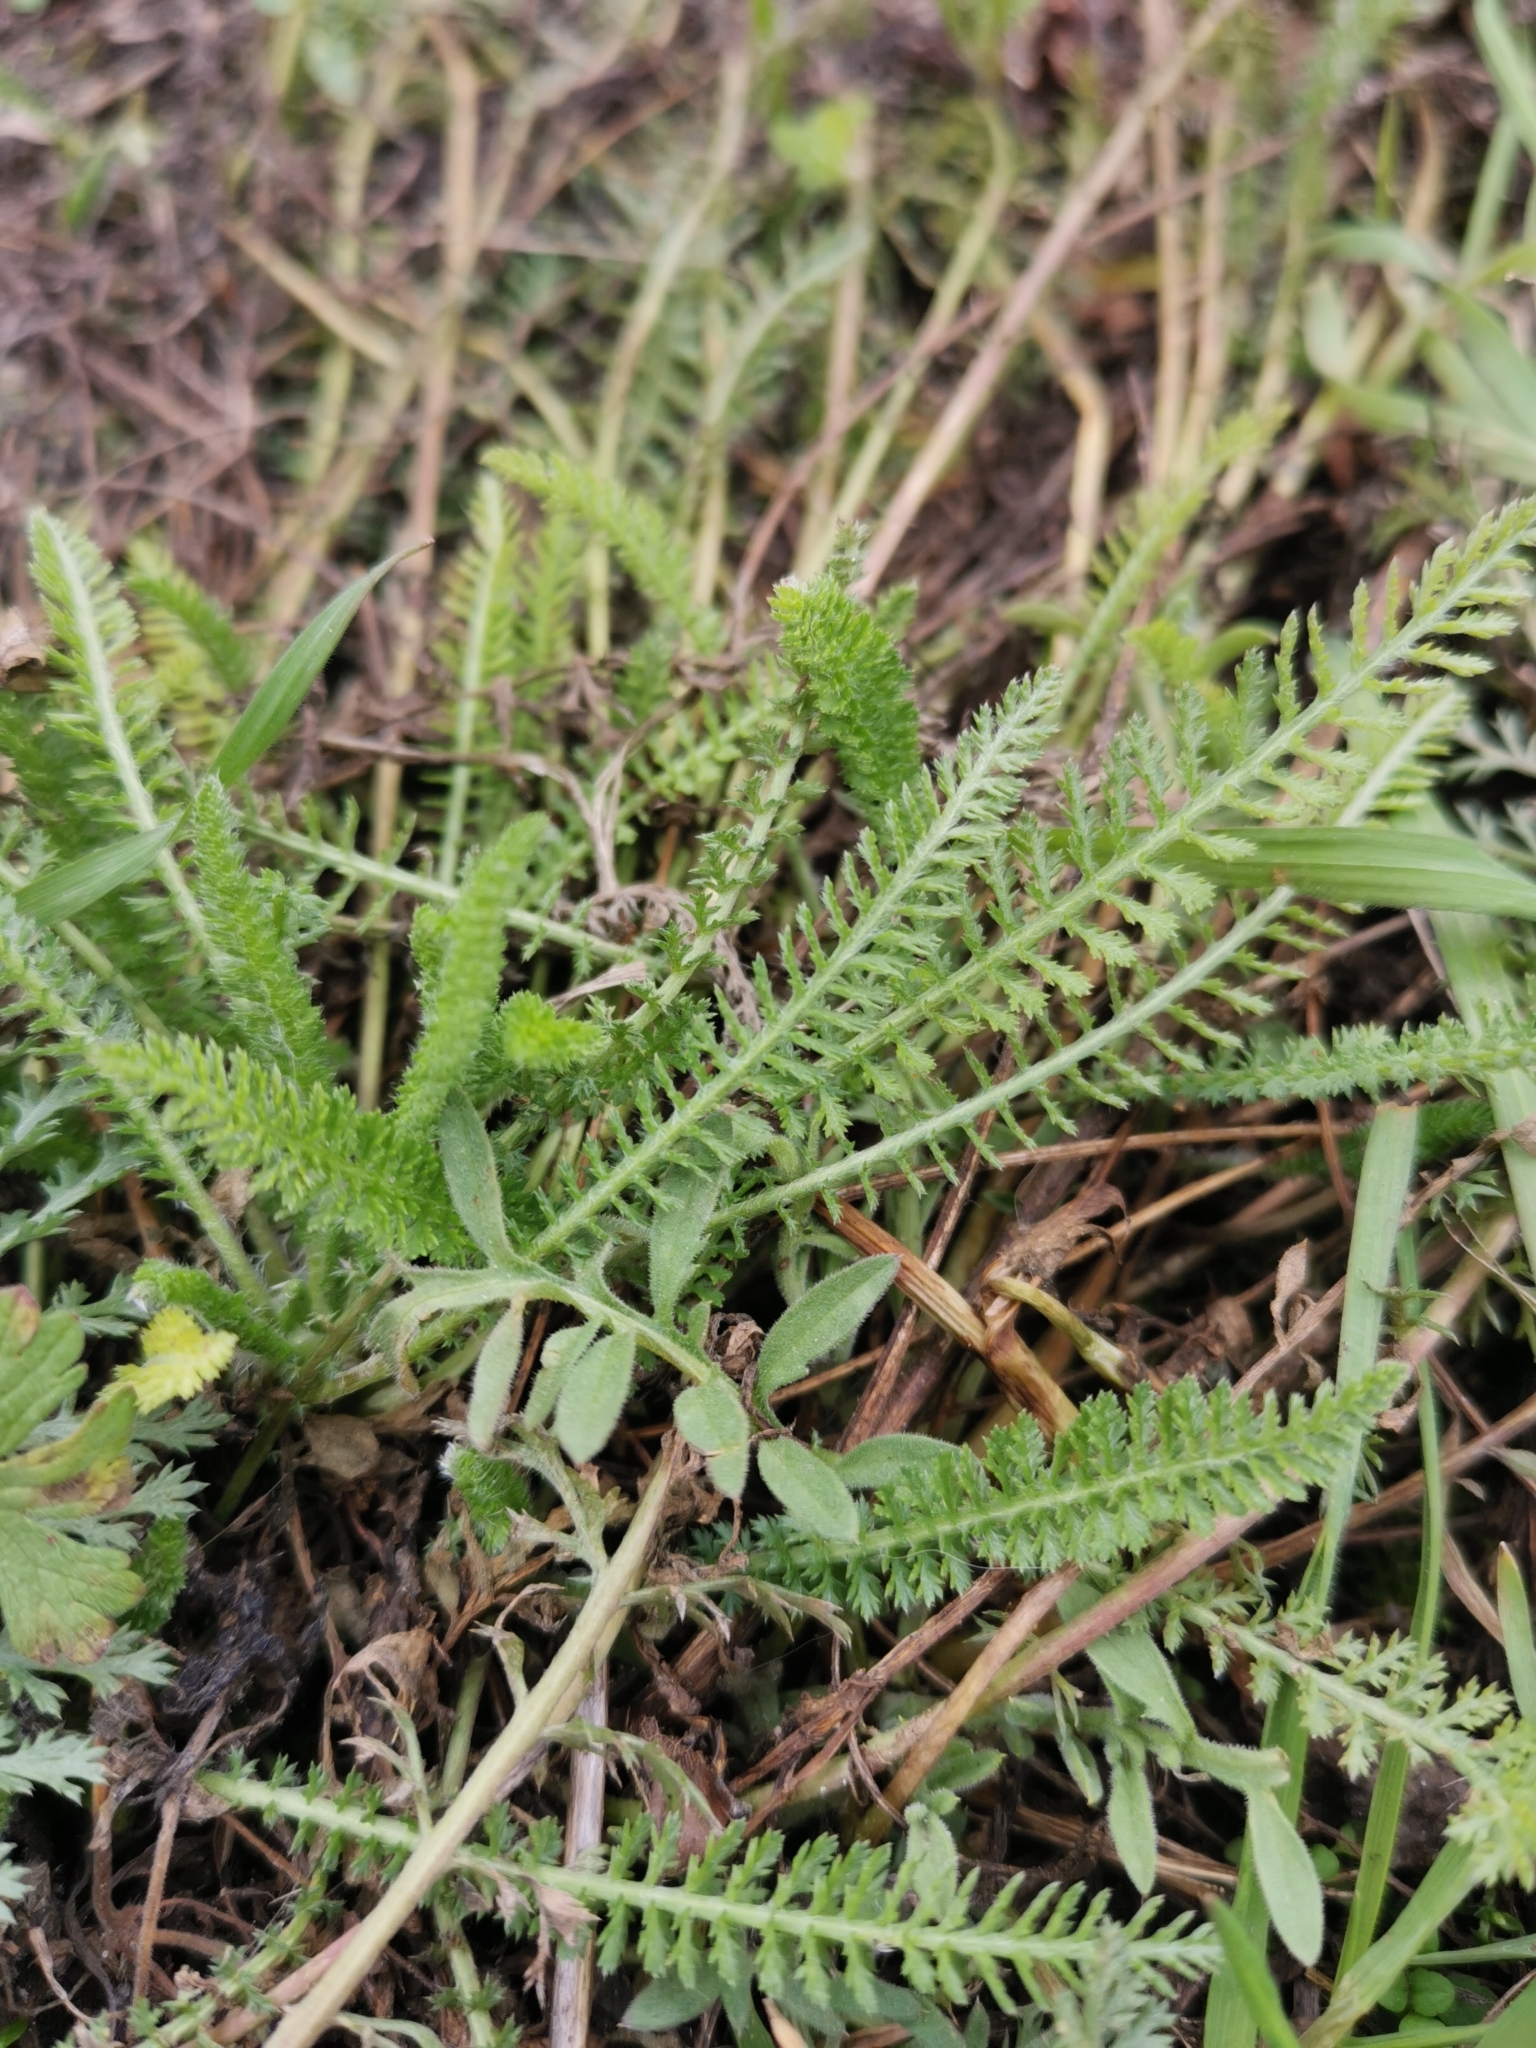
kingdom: Plantae
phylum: Tracheophyta
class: Magnoliopsida
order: Asterales
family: Asteraceae
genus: Achillea
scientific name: Achillea millefolium
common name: Yarrow
